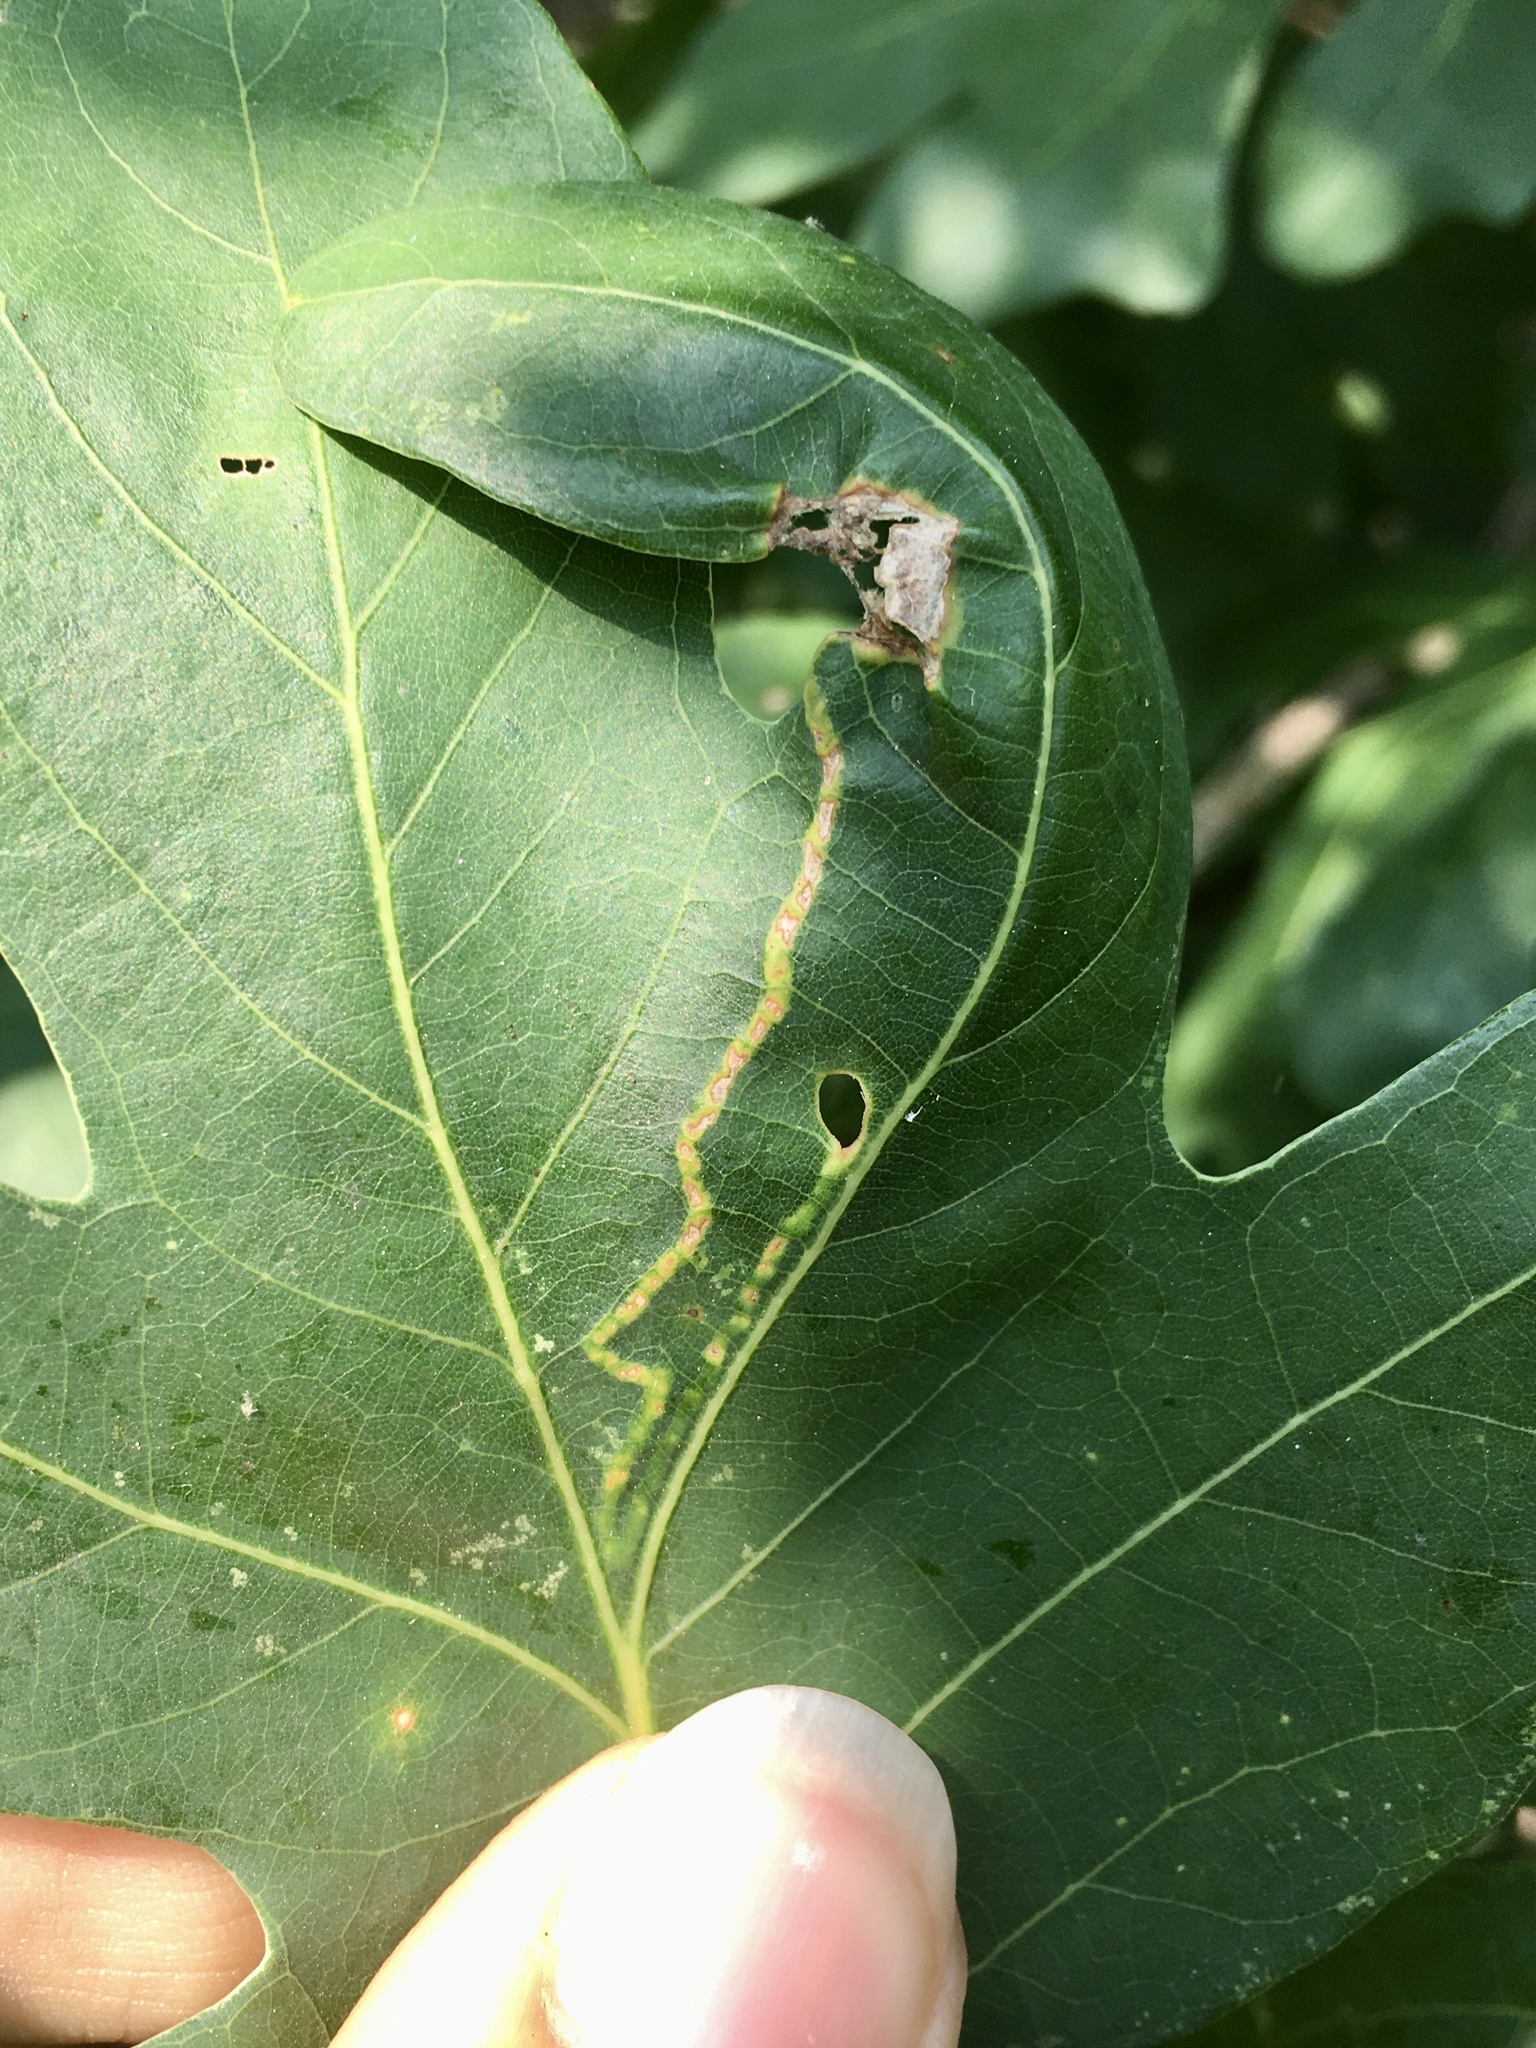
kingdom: Animalia
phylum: Arthropoda
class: Insecta
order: Lepidoptera
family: Gracillariidae
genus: Povolnya
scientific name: Povolnya quercinigrella
